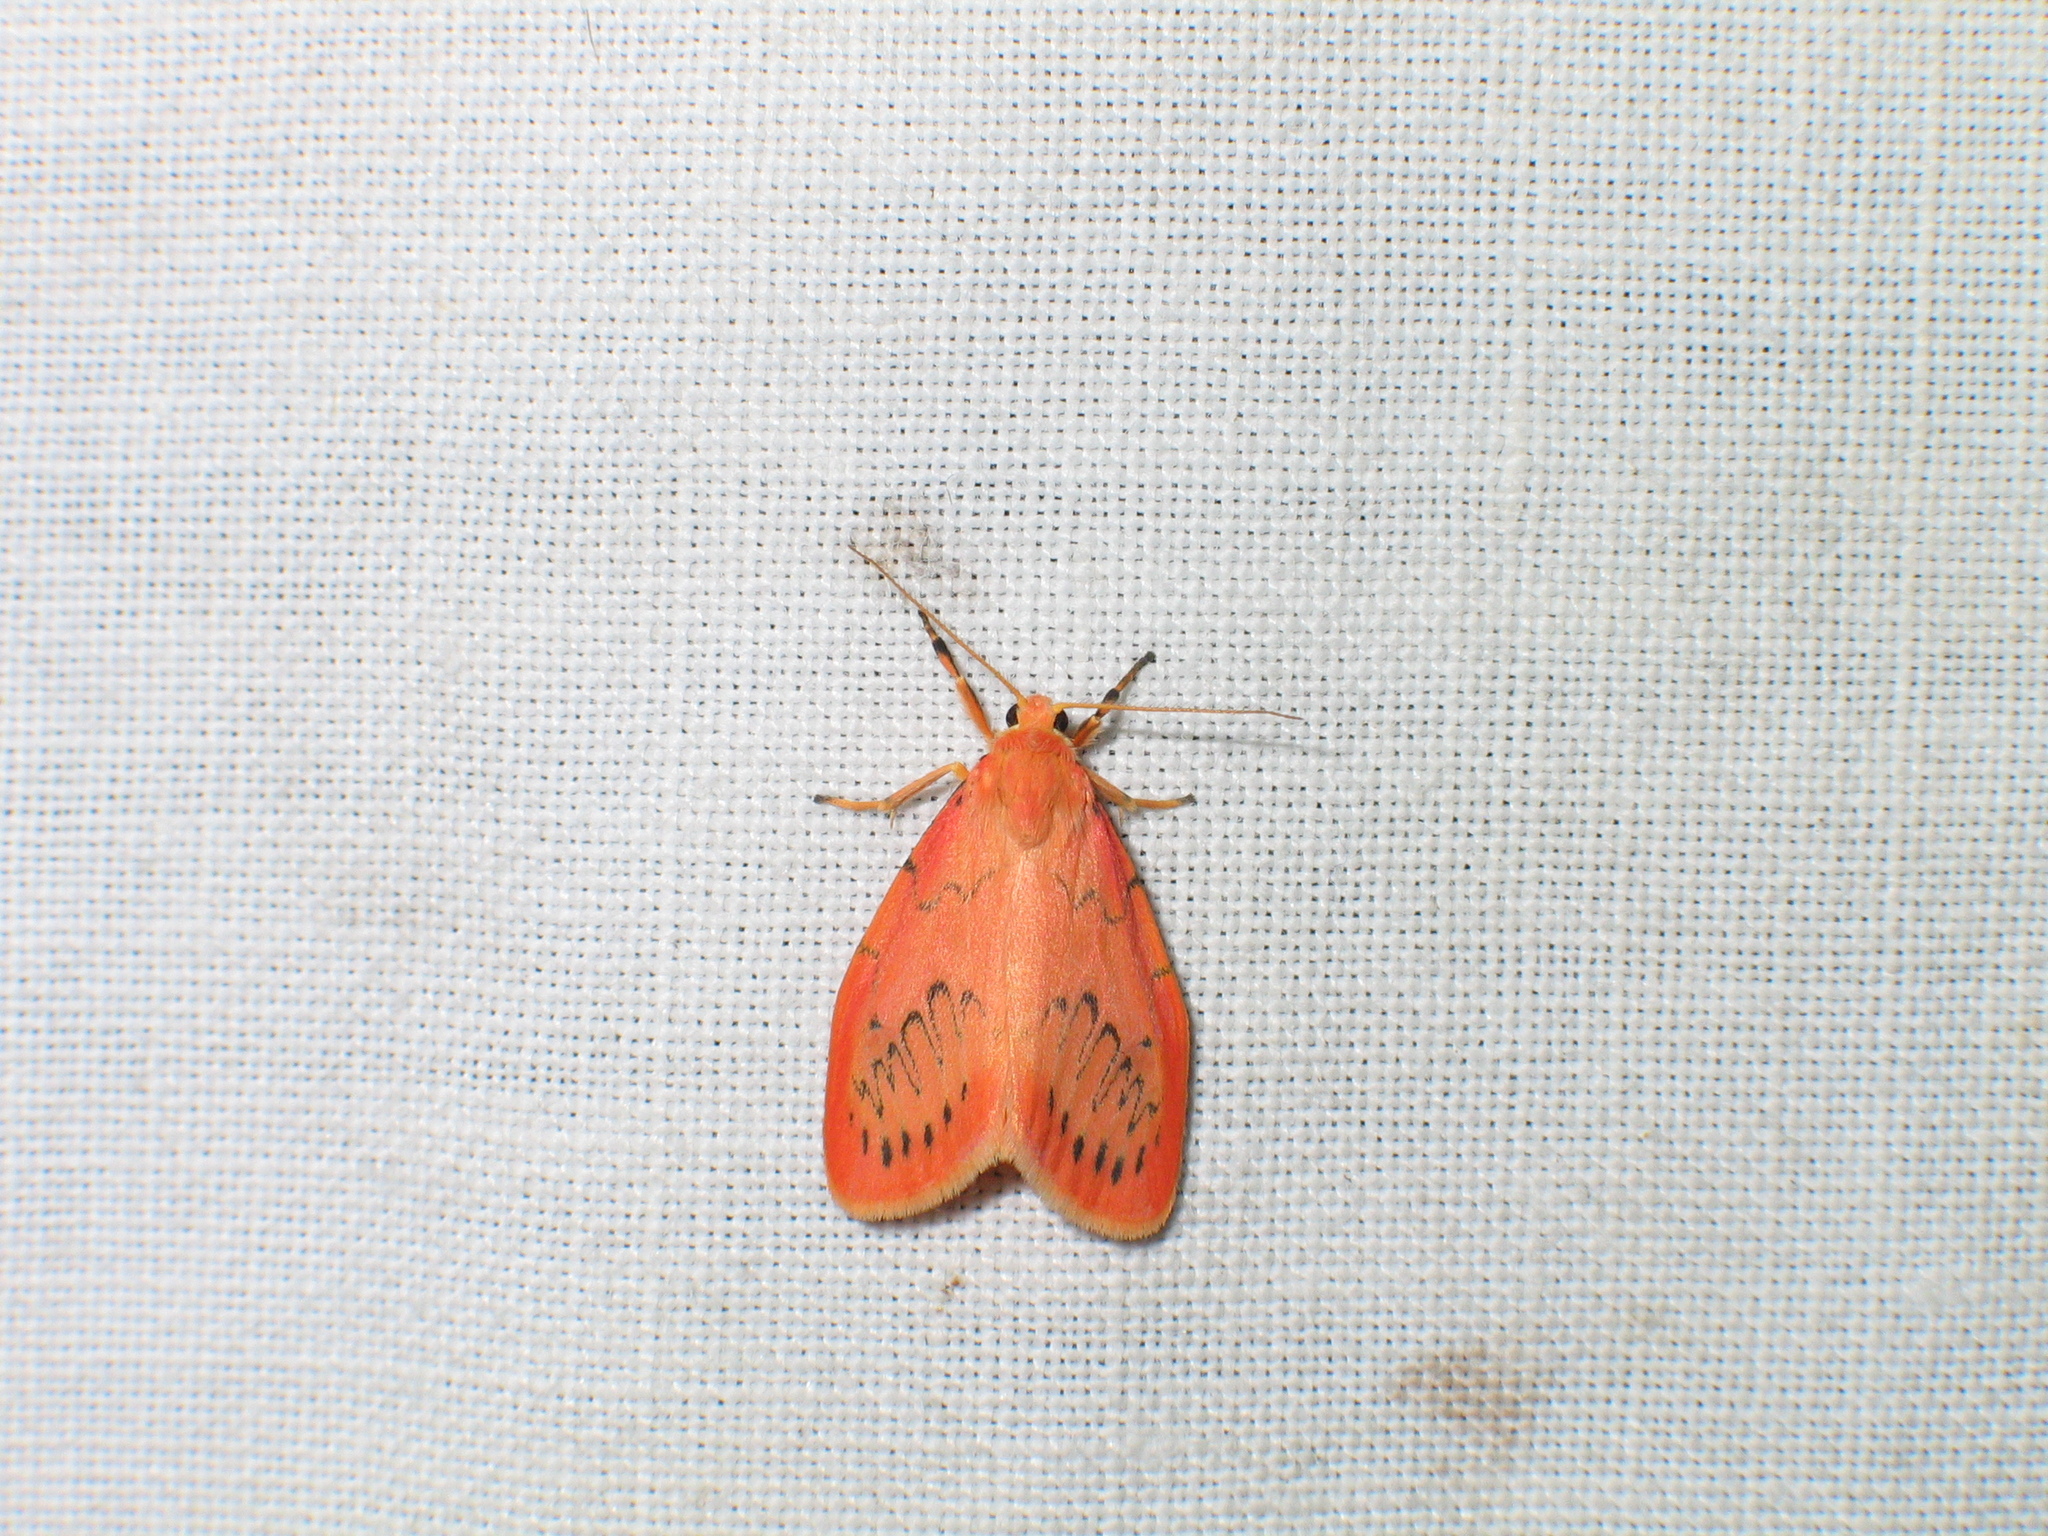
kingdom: Animalia
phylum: Arthropoda
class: Insecta
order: Lepidoptera
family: Erebidae
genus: Miltochrista
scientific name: Miltochrista miniata
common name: Rosy footman
